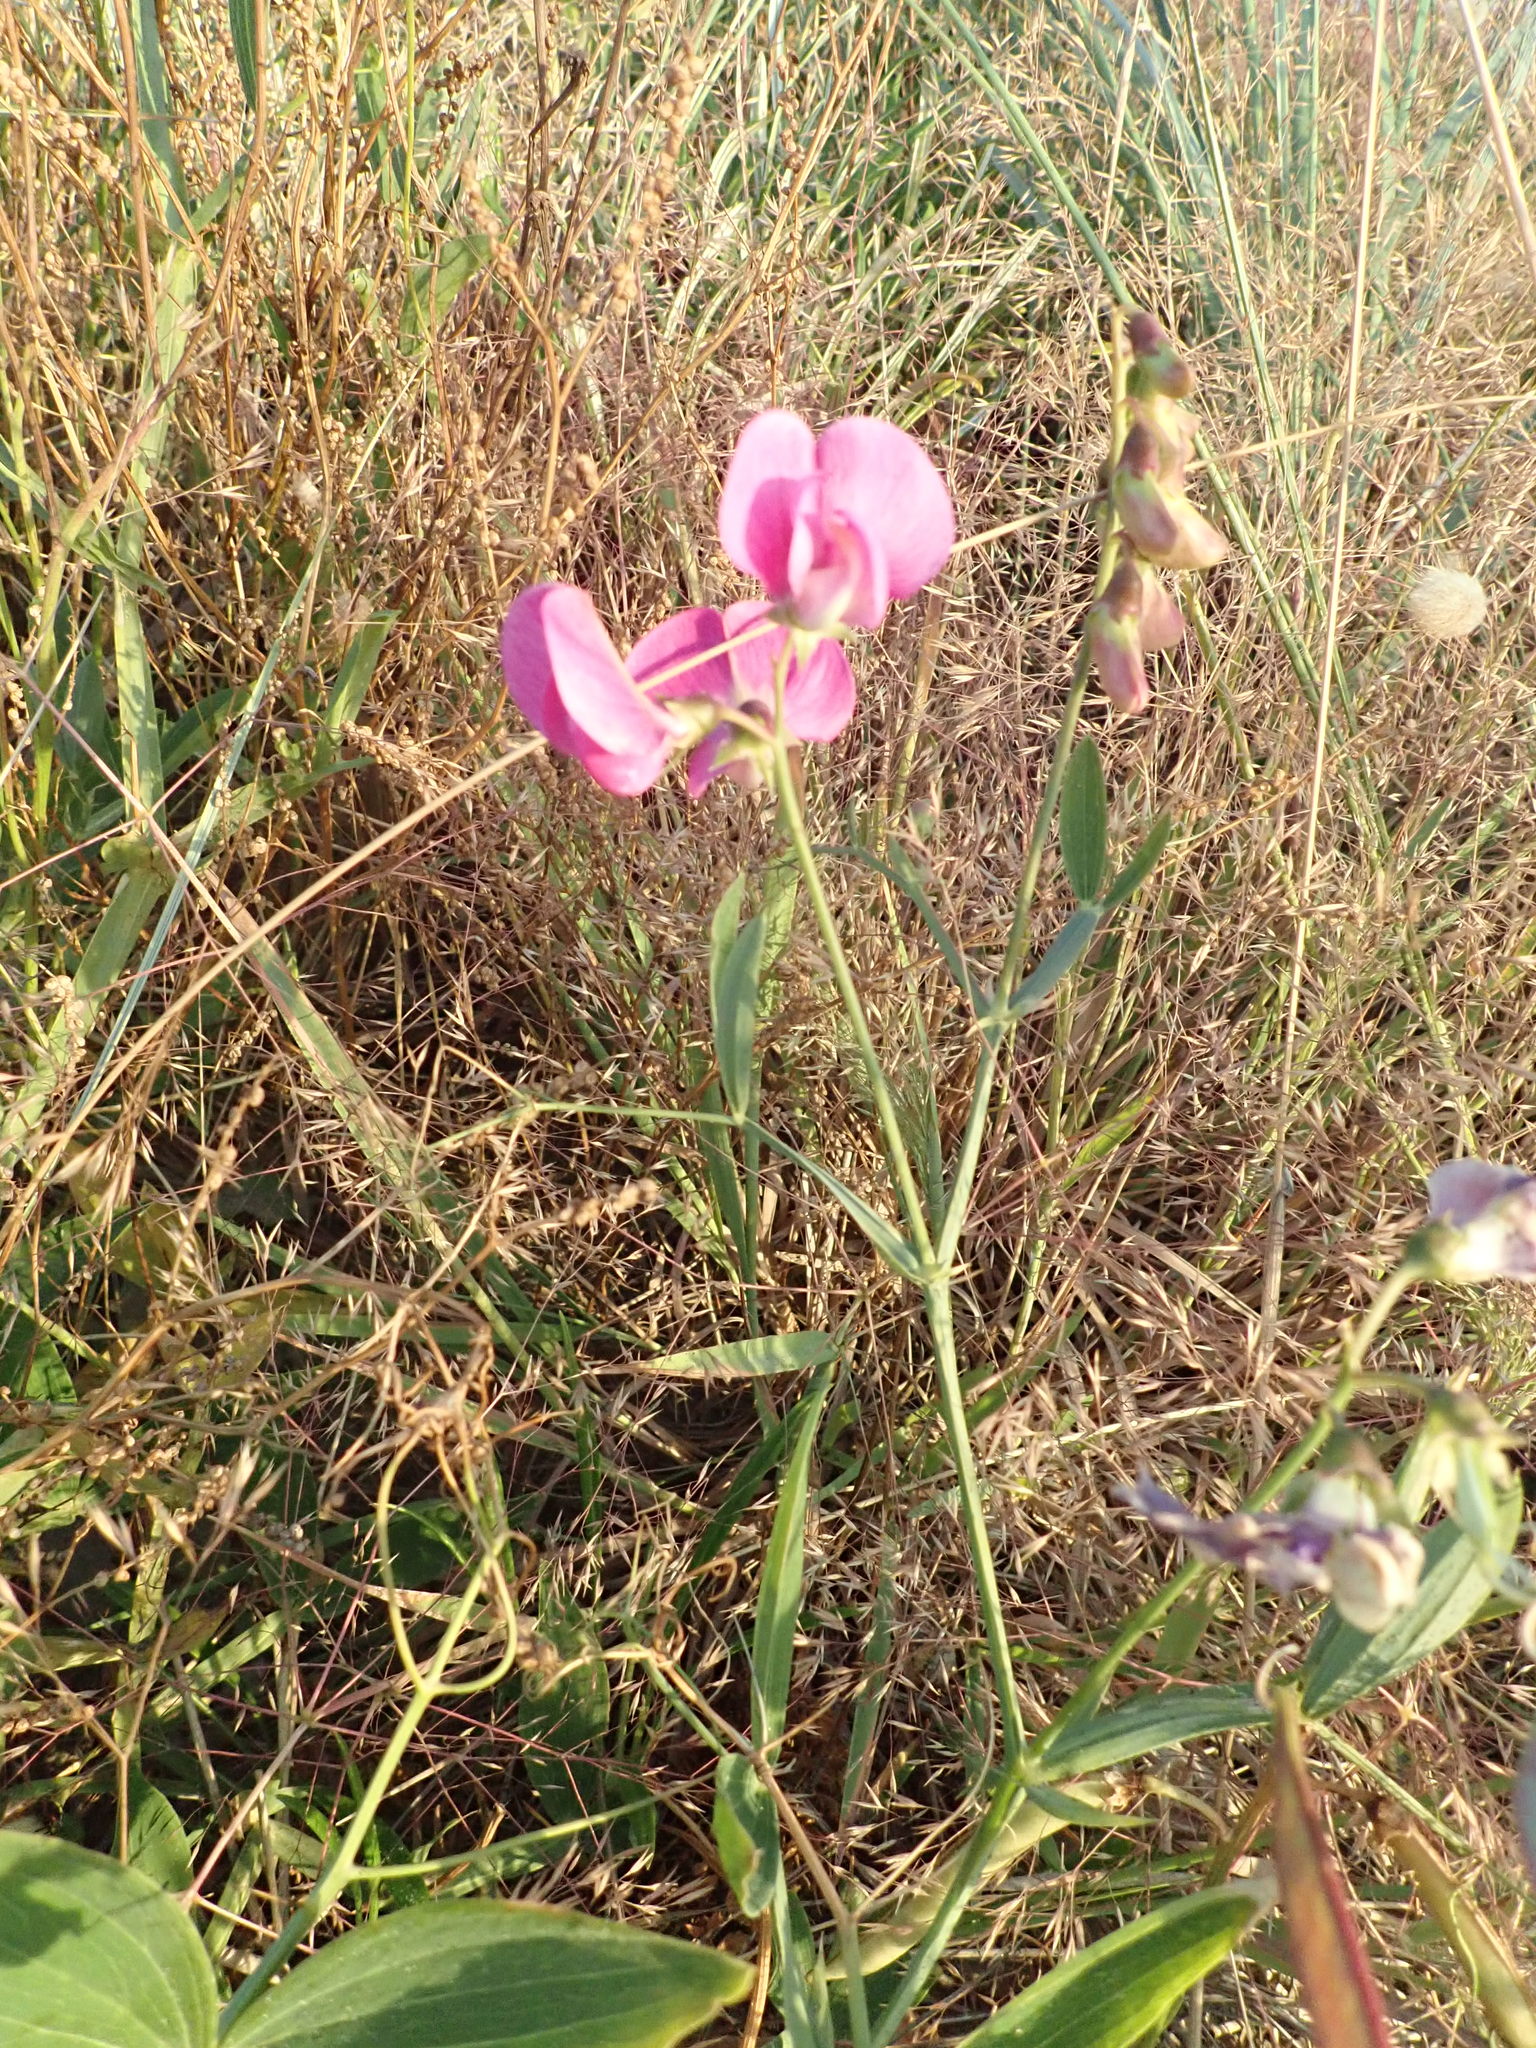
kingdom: Plantae
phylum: Tracheophyta
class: Magnoliopsida
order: Fabales
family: Fabaceae
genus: Lathyrus
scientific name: Lathyrus latifolius
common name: Perennial pea
